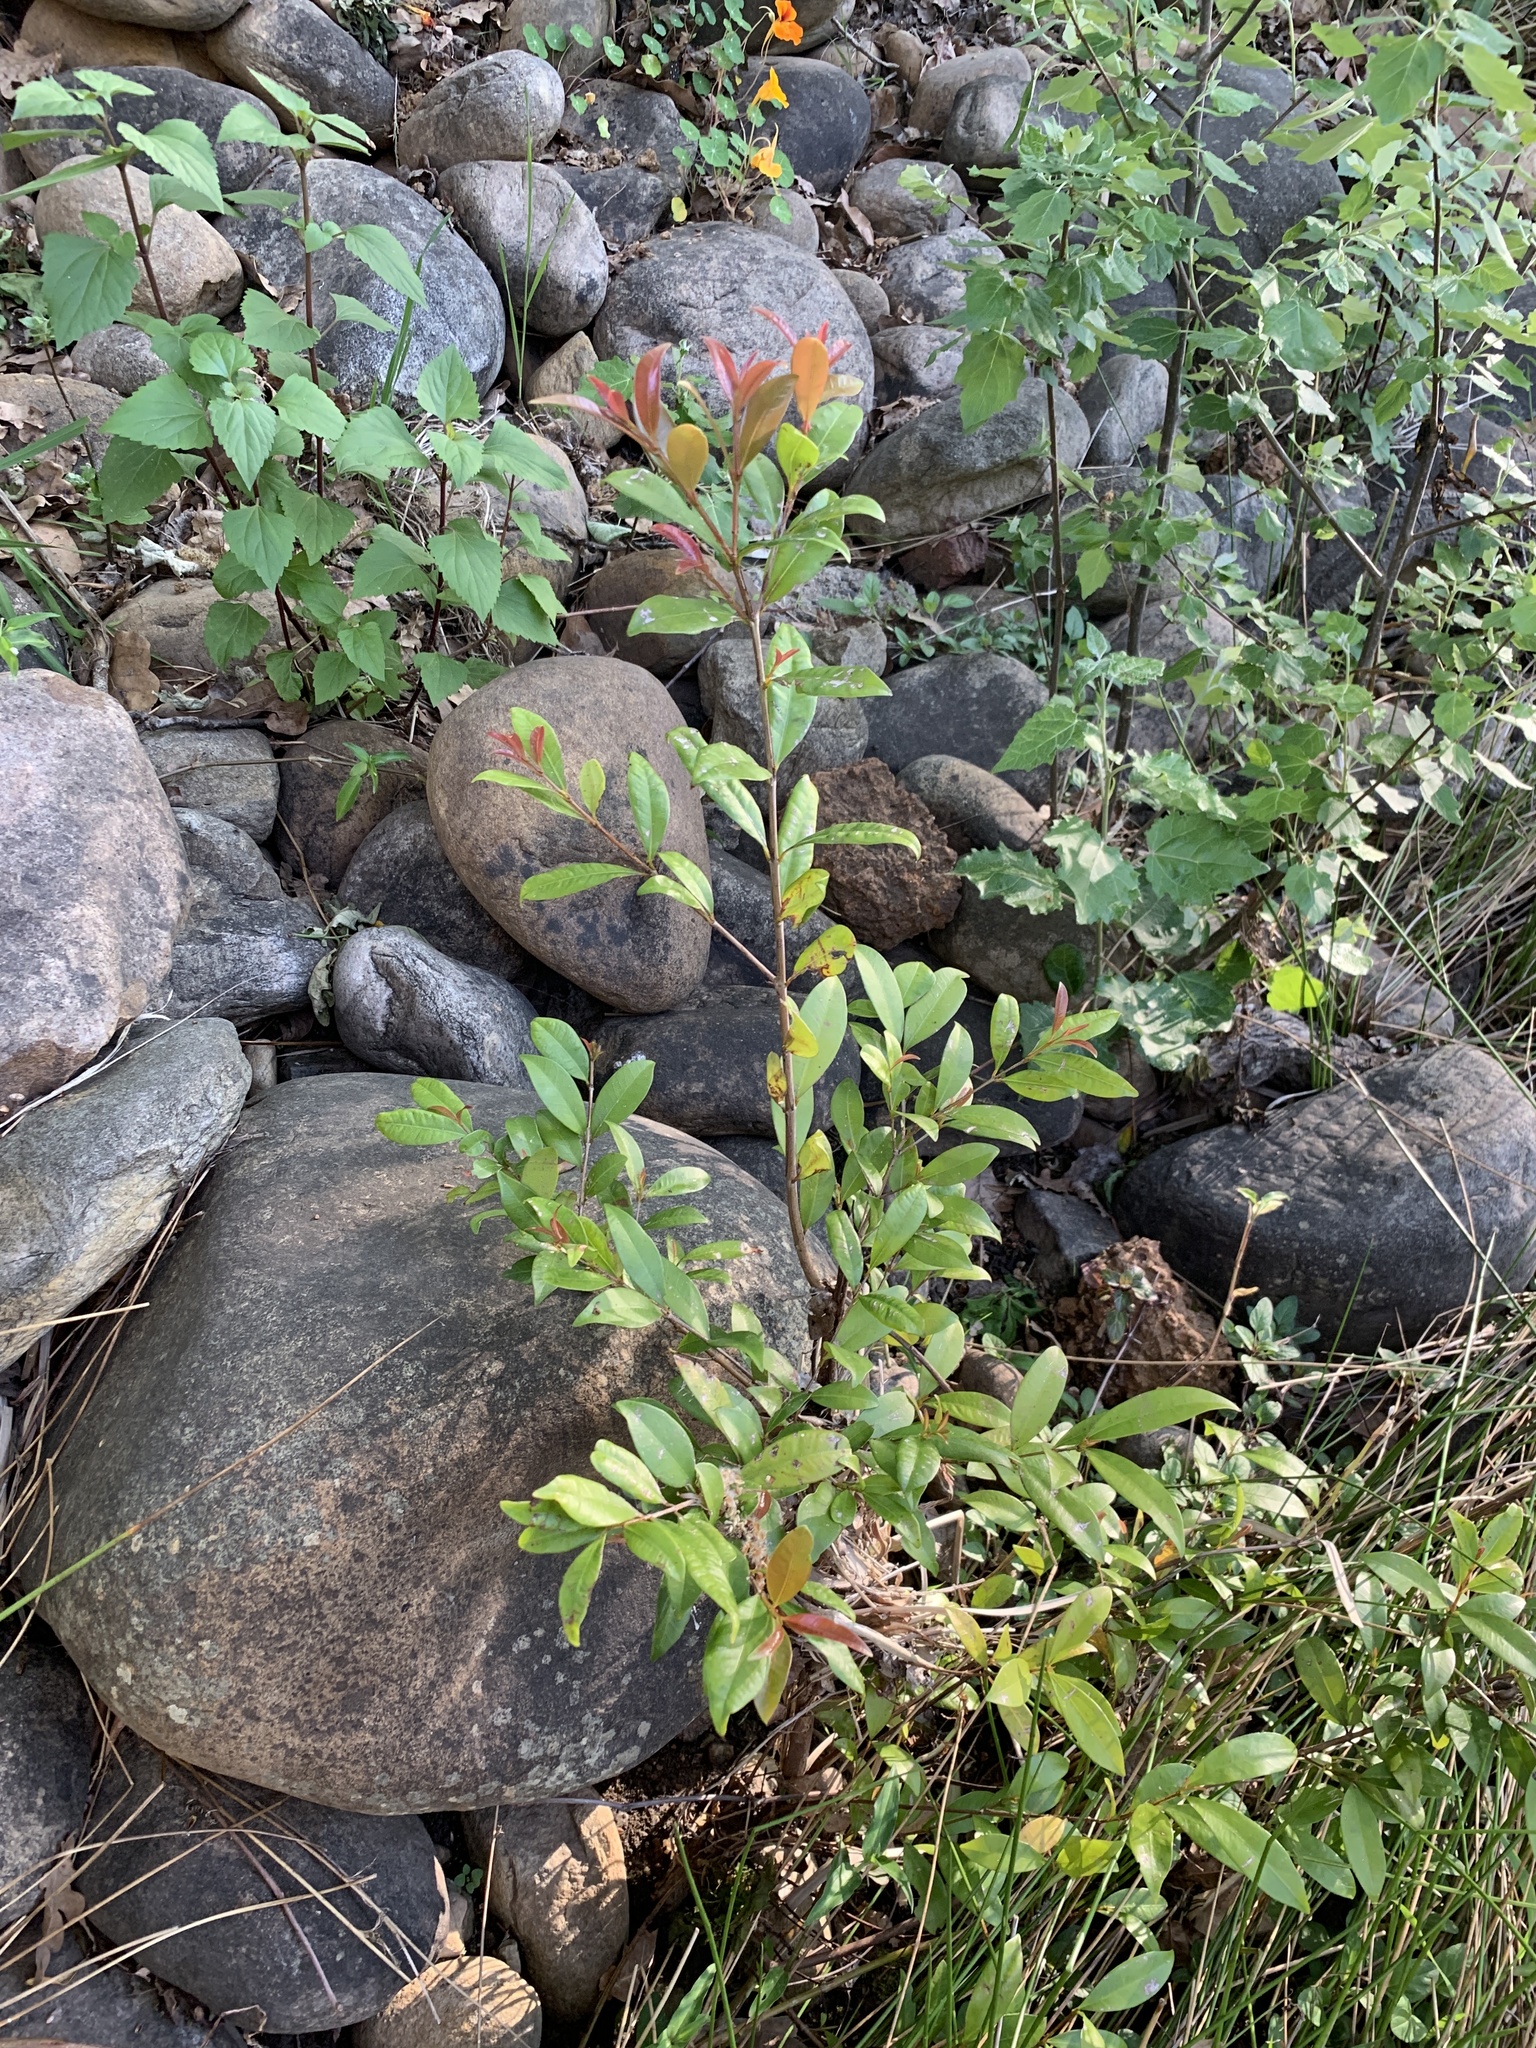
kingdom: Plantae
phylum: Tracheophyta
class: Magnoliopsida
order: Myrtales
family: Myrtaceae
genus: Syzygium
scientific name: Syzygium australe
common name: Australian brush-cherry
